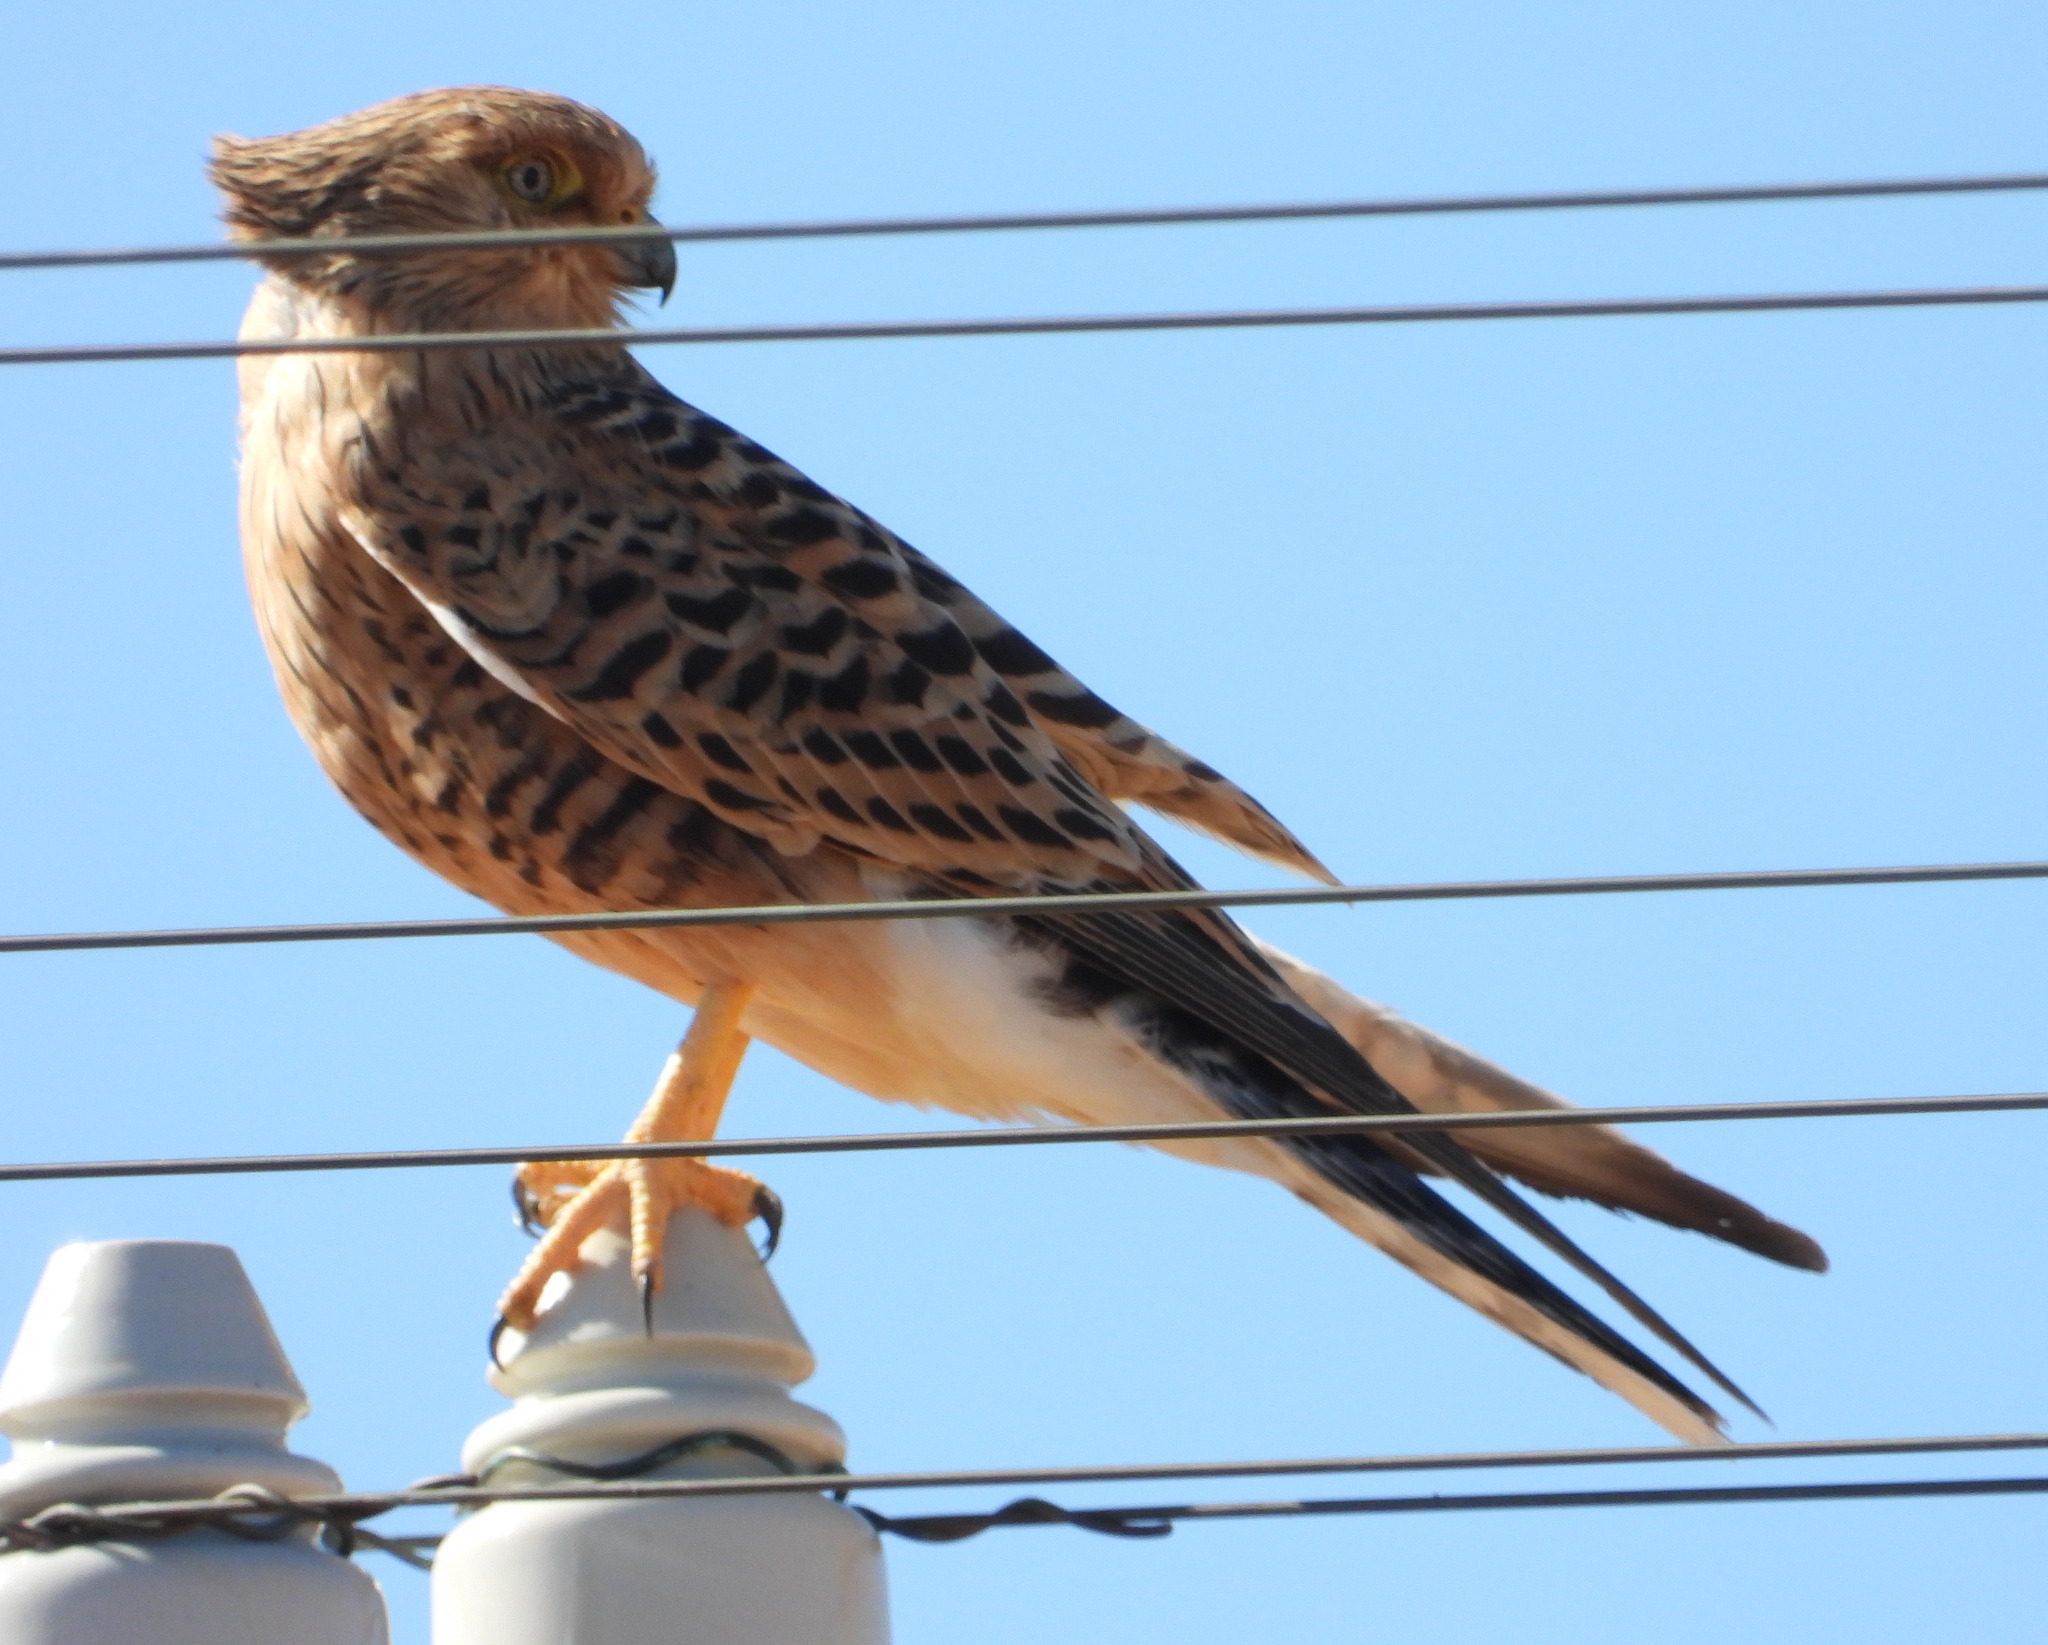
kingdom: Animalia
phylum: Chordata
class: Aves
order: Falconiformes
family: Falconidae
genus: Falco
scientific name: Falco rupicoloides
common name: Greater kestrel
